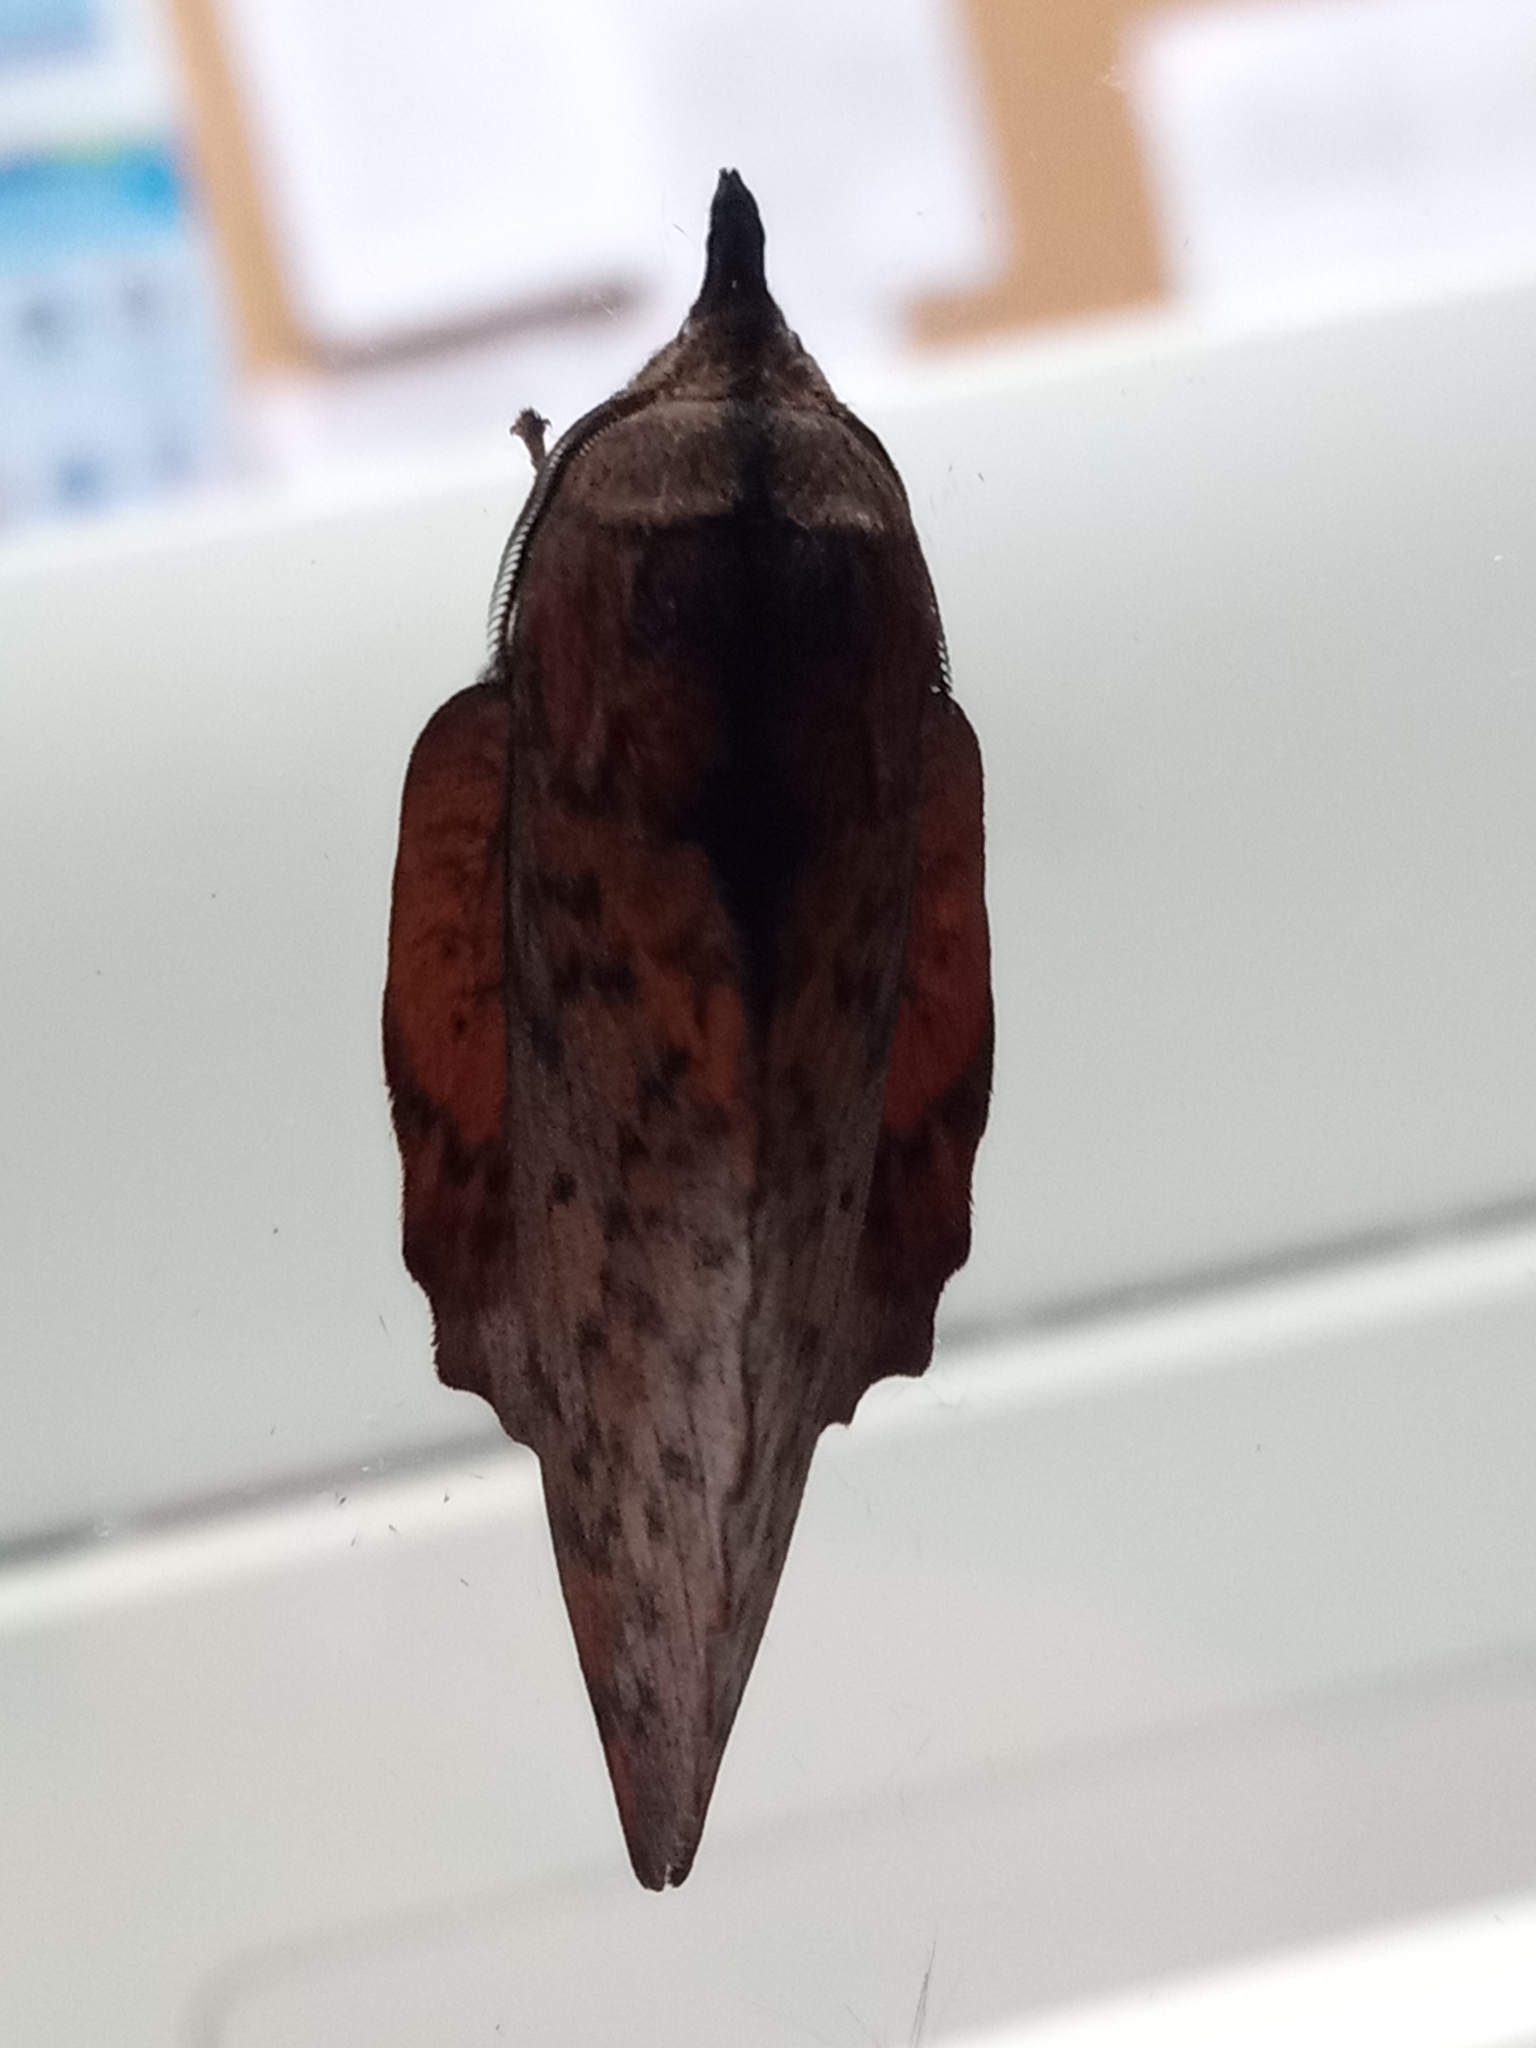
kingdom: Animalia
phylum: Arthropoda
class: Insecta
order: Lepidoptera
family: Lasiocampidae
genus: Gastropacha
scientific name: Gastropacha populifolia
